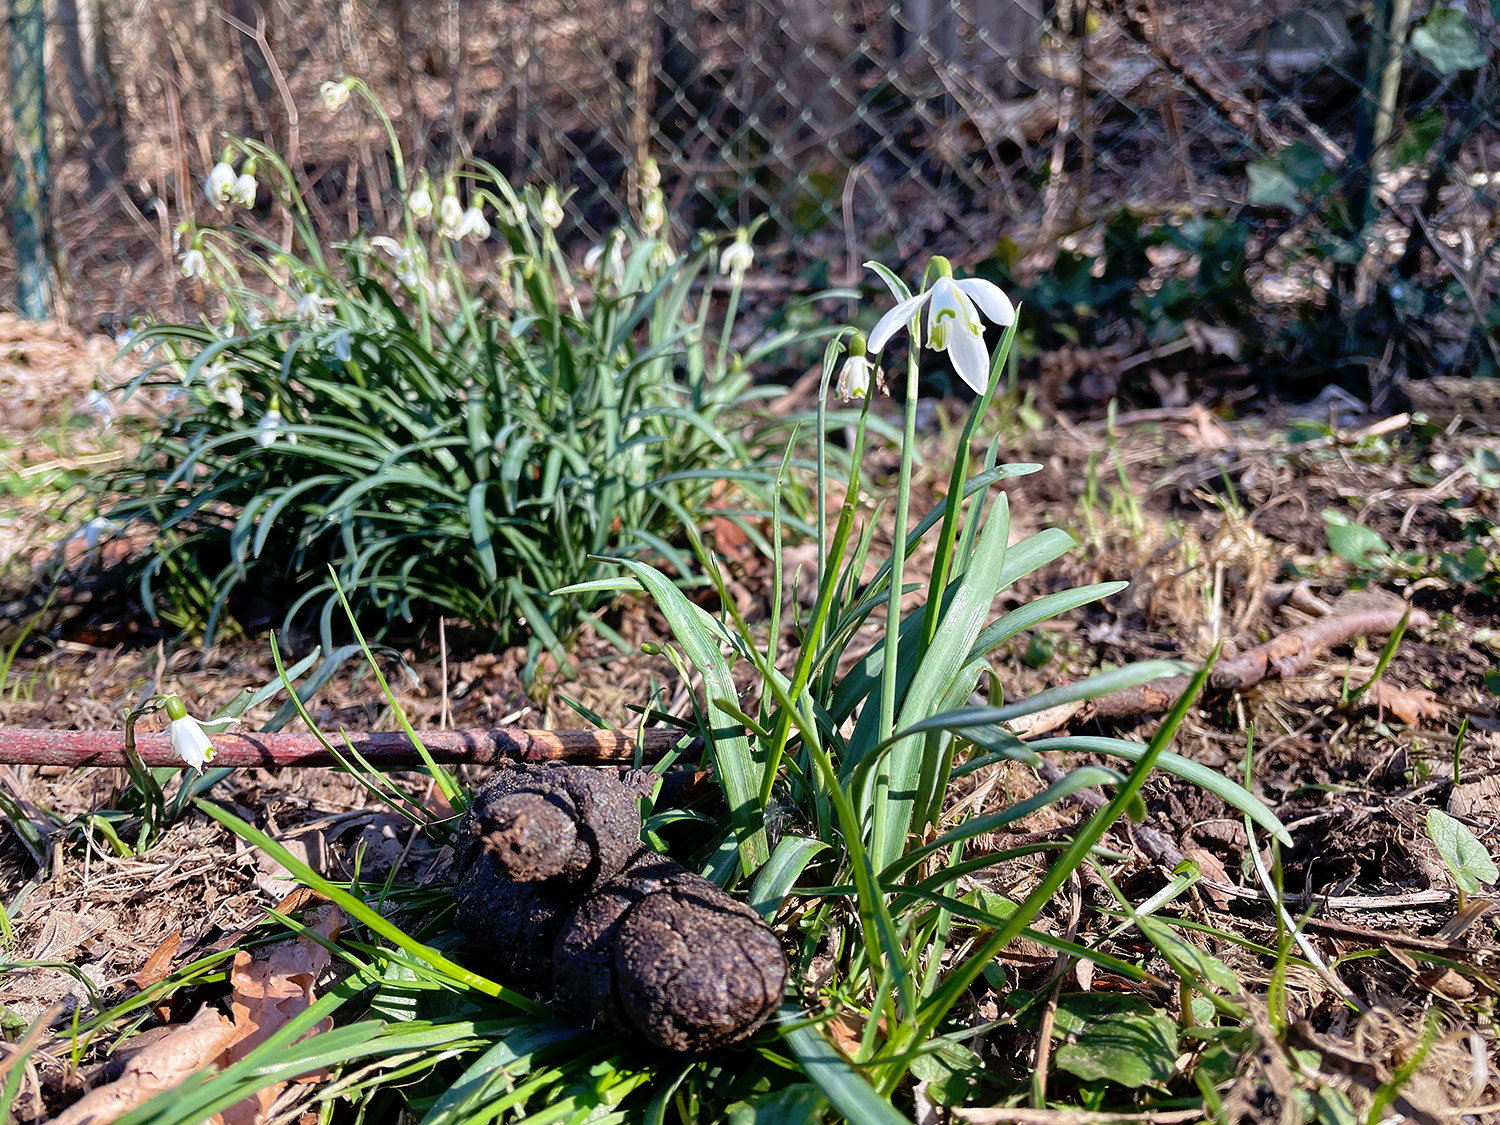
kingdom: Plantae
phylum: Tracheophyta
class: Liliopsida
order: Asparagales
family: Amaryllidaceae
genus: Galanthus
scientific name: Galanthus nivalis
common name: Snowdrop
